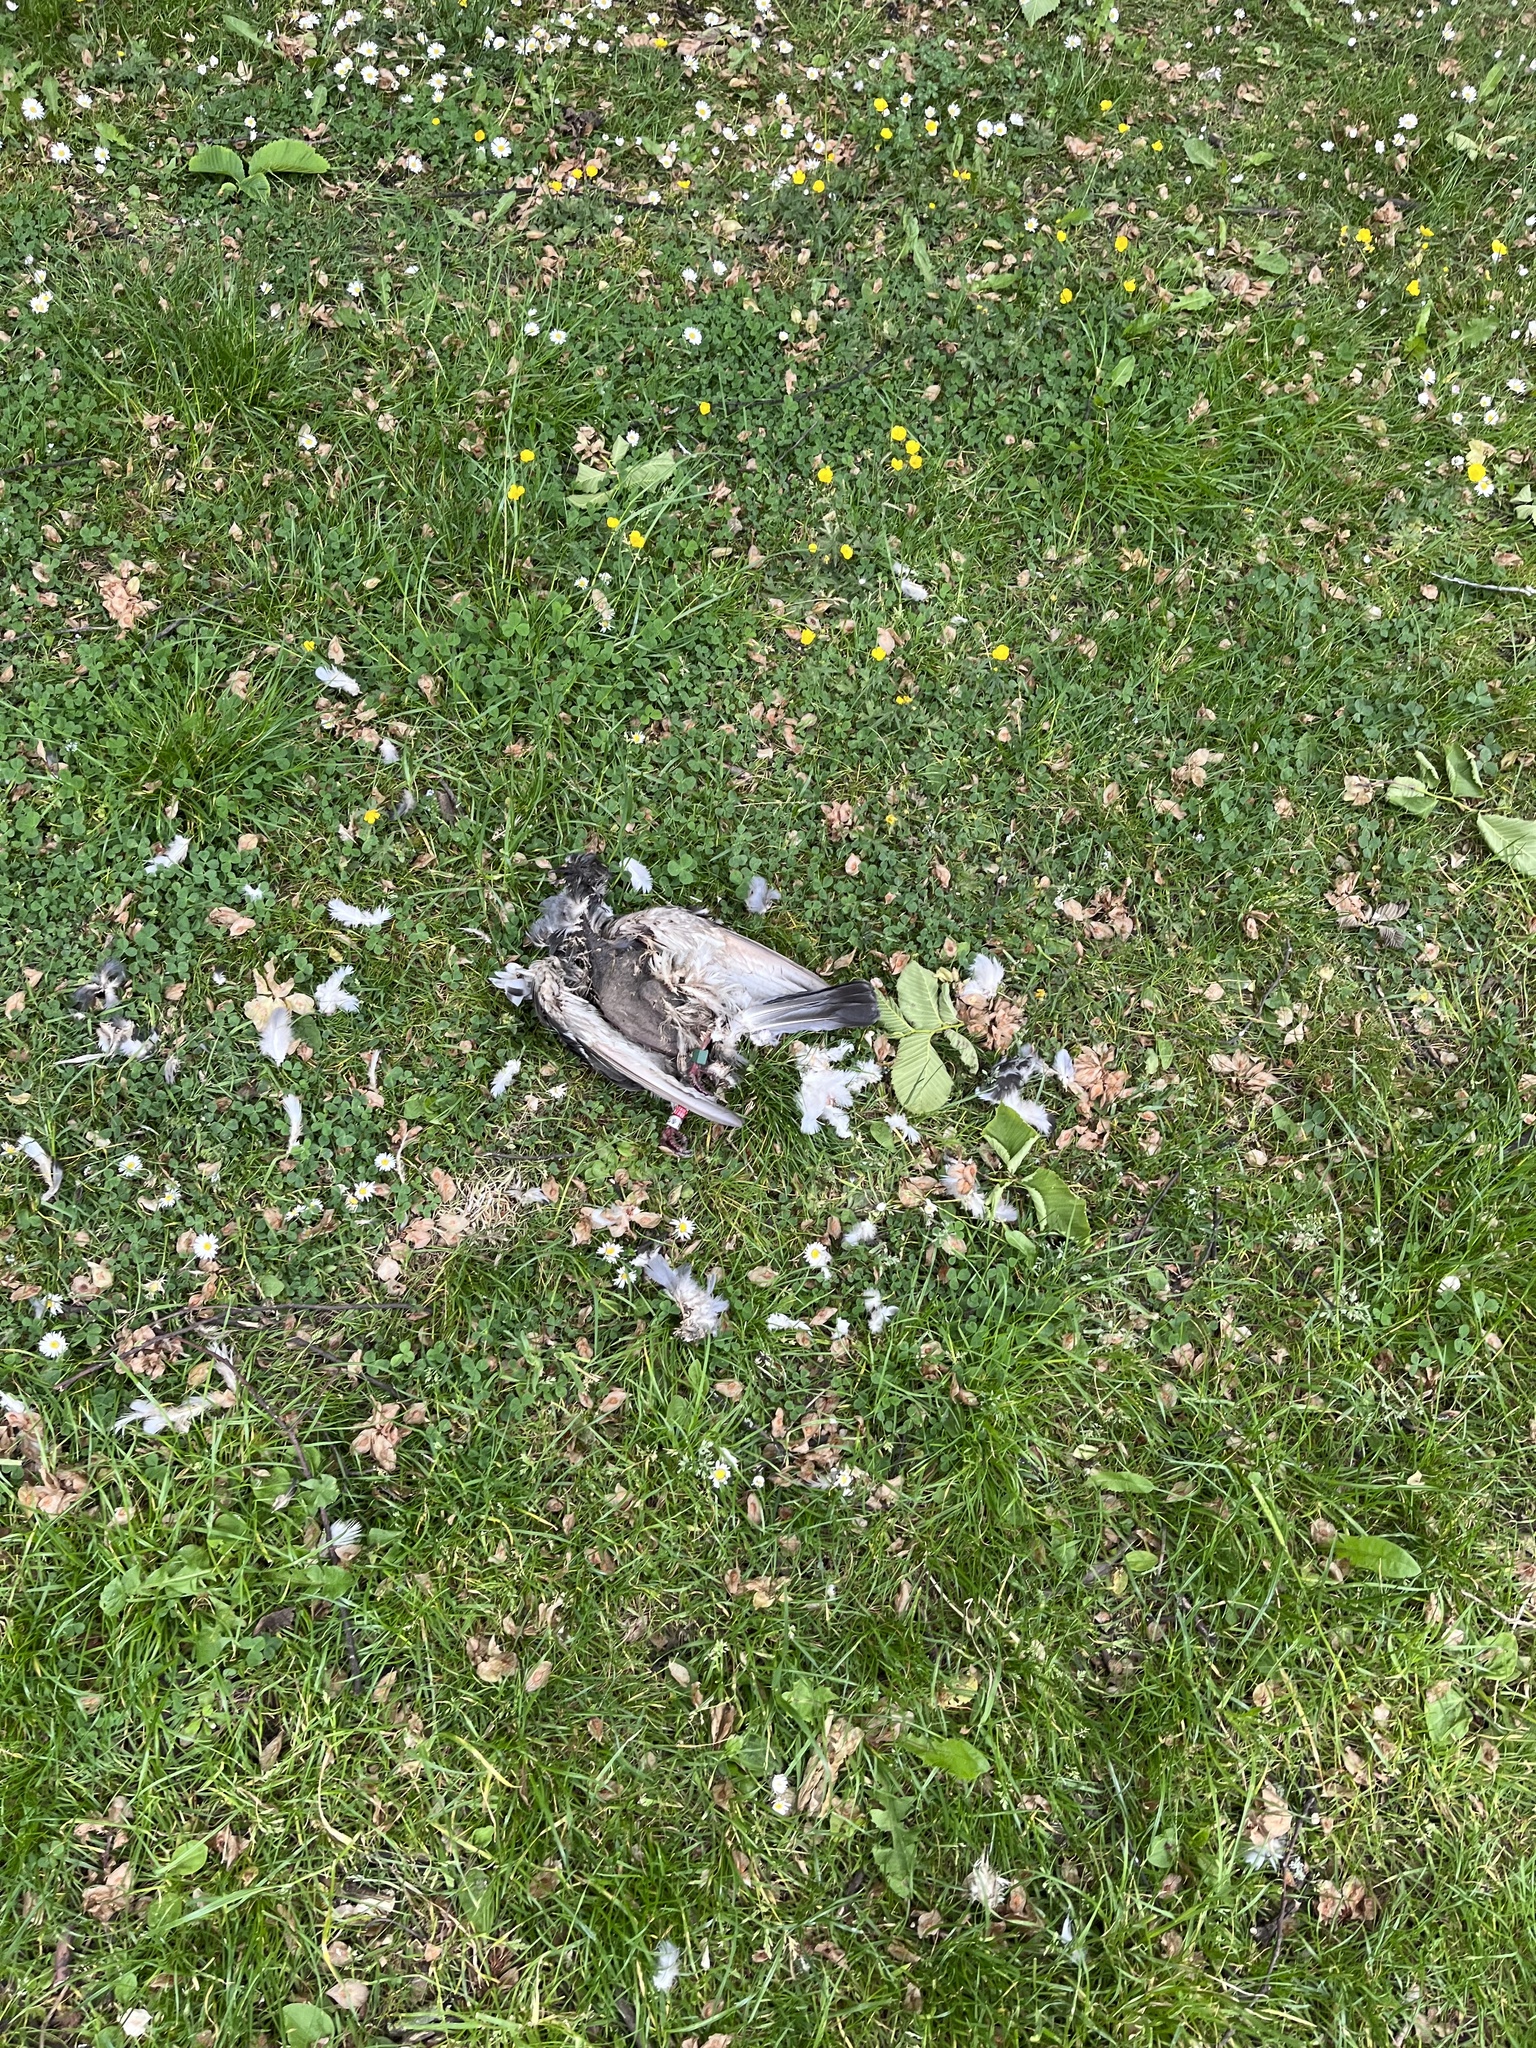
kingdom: Animalia
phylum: Chordata
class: Aves
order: Columbiformes
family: Columbidae
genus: Columba
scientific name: Columba livia
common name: Rock pigeon
